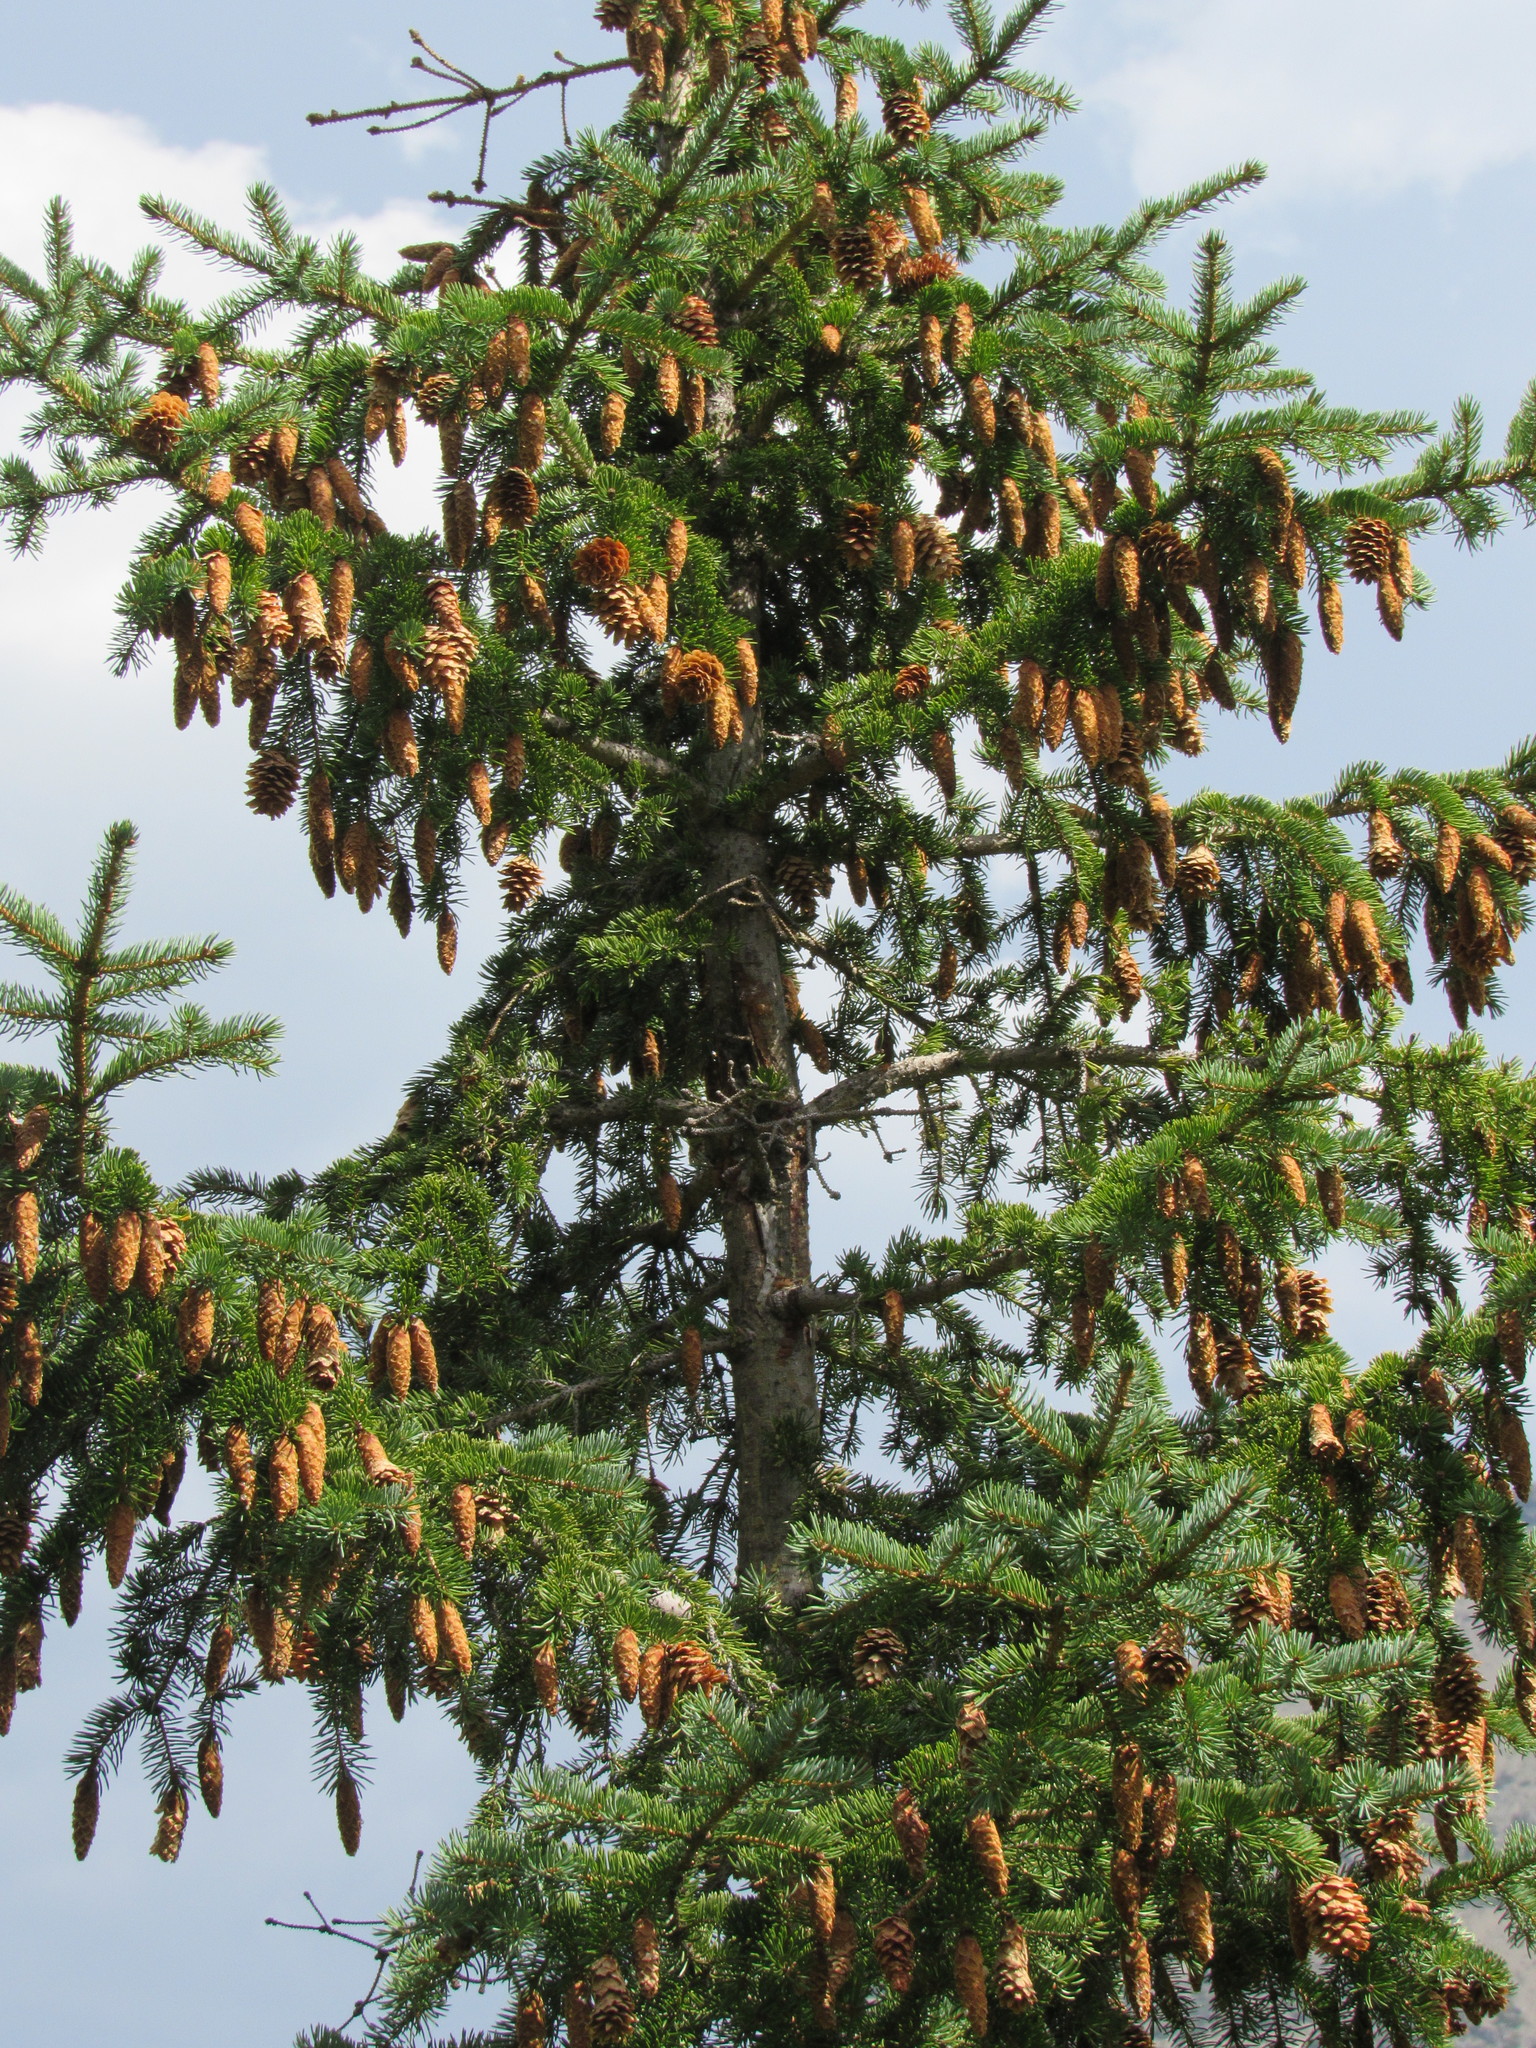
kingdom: Plantae
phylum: Tracheophyta
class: Pinopsida
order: Pinales
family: Pinaceae
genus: Picea
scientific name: Picea engelmannii
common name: Engelmann spruce
